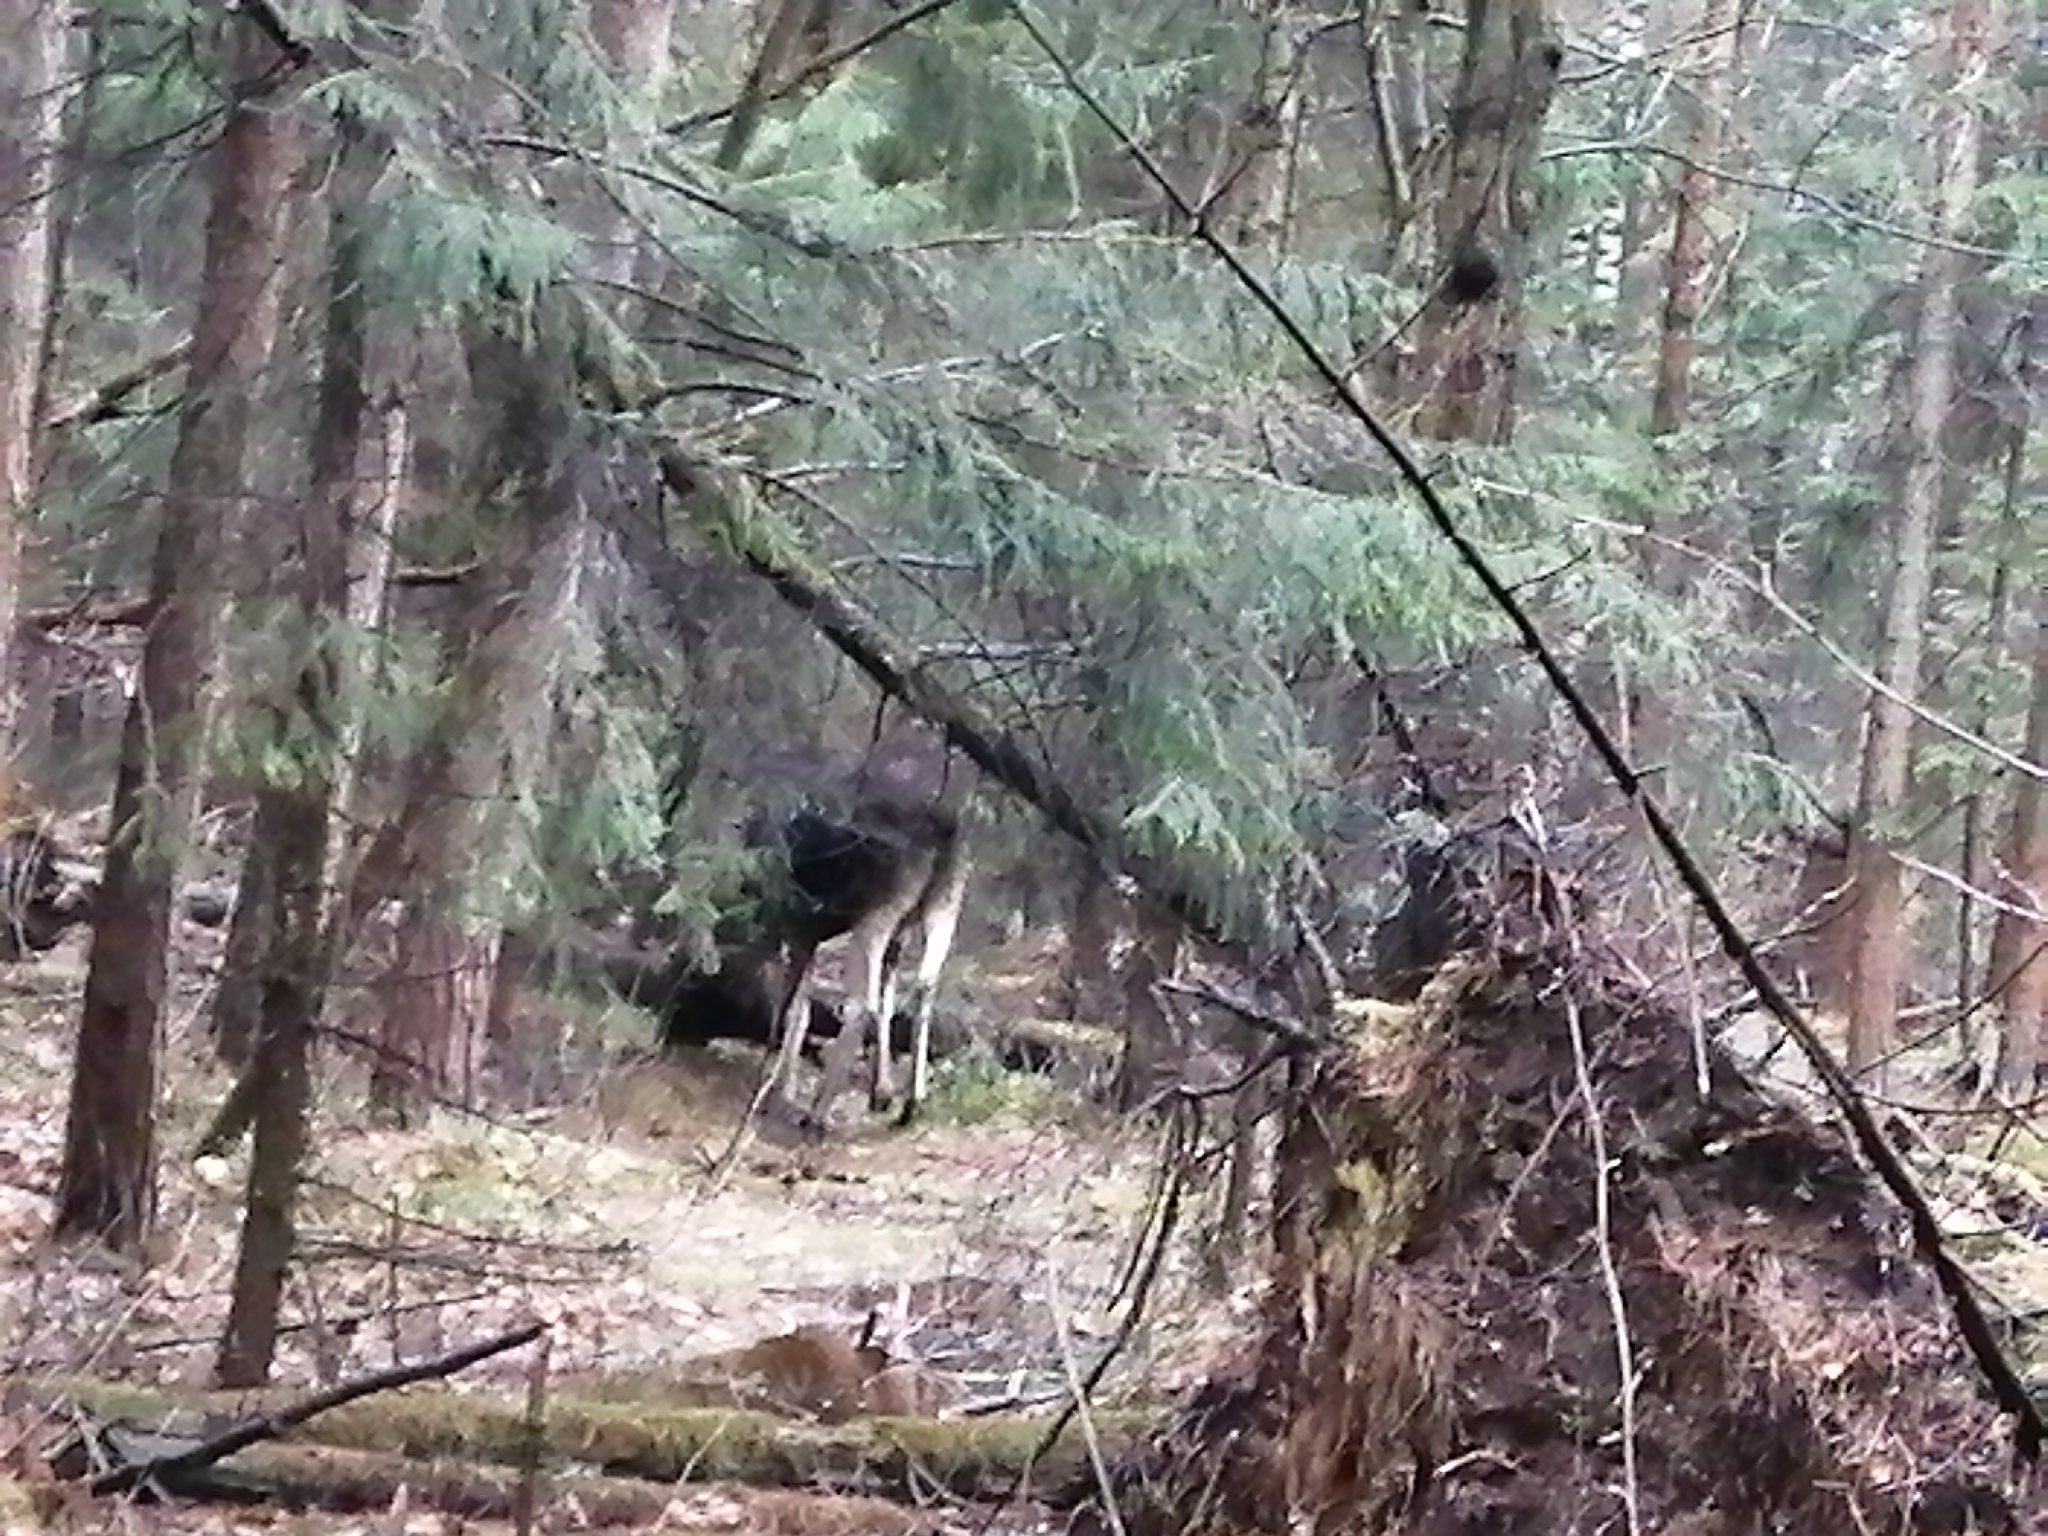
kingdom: Animalia
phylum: Chordata
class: Mammalia
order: Artiodactyla
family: Cervidae
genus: Alces
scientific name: Alces alces
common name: Moose
